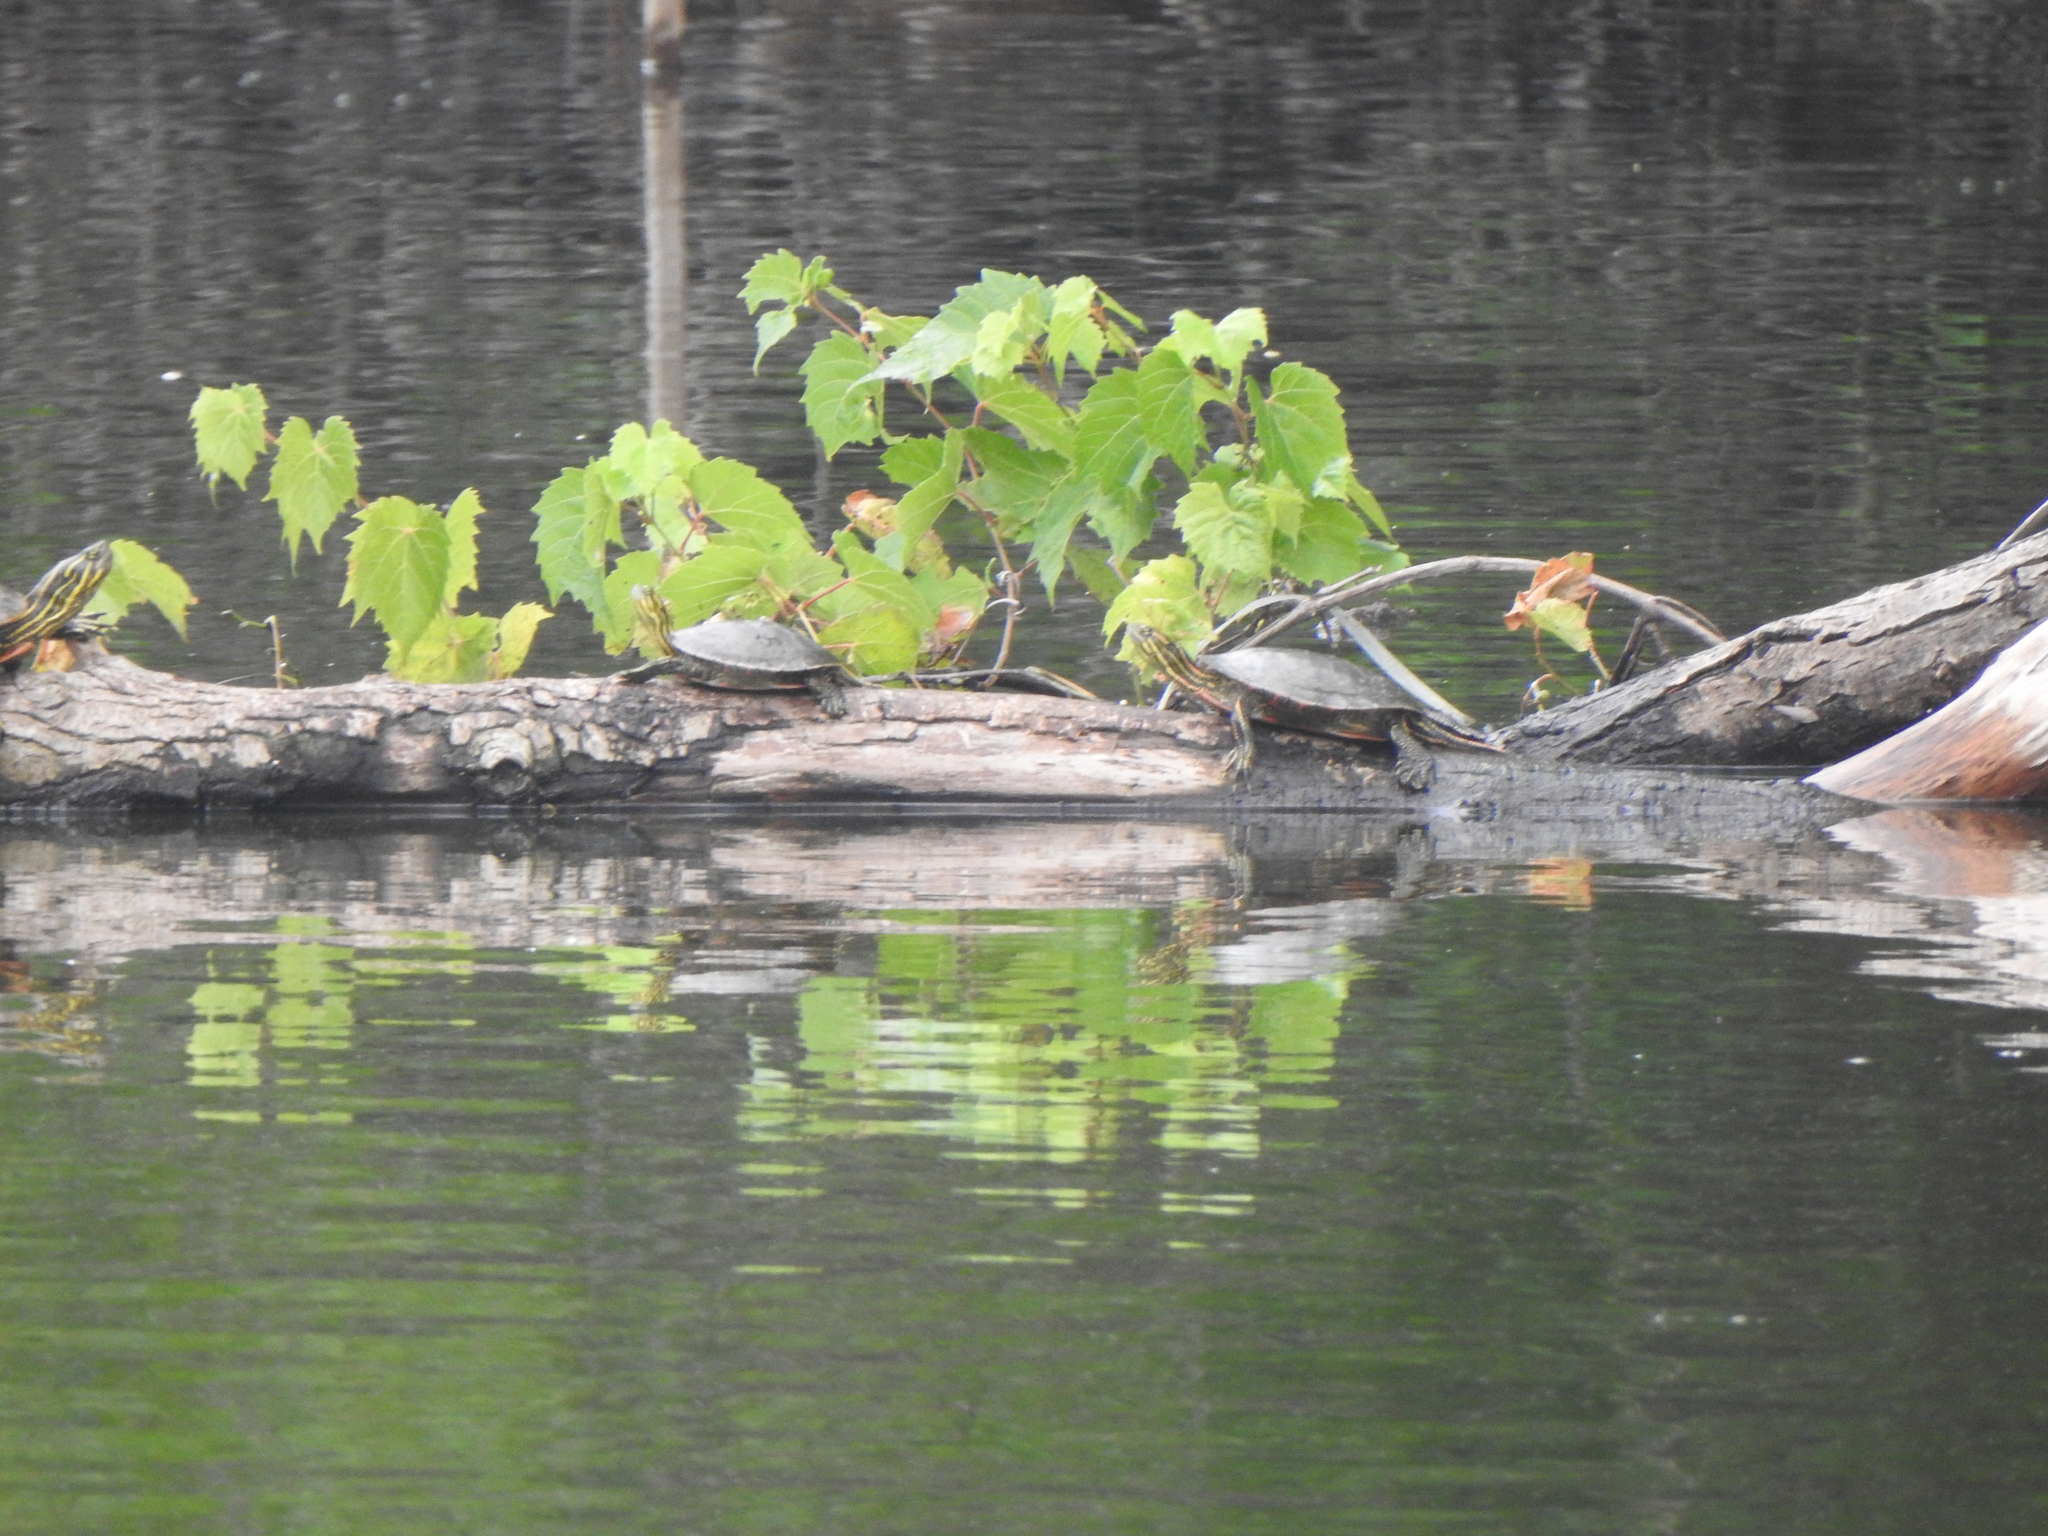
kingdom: Animalia
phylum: Chordata
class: Testudines
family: Emydidae
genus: Chrysemys
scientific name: Chrysemys picta
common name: Painted turtle
